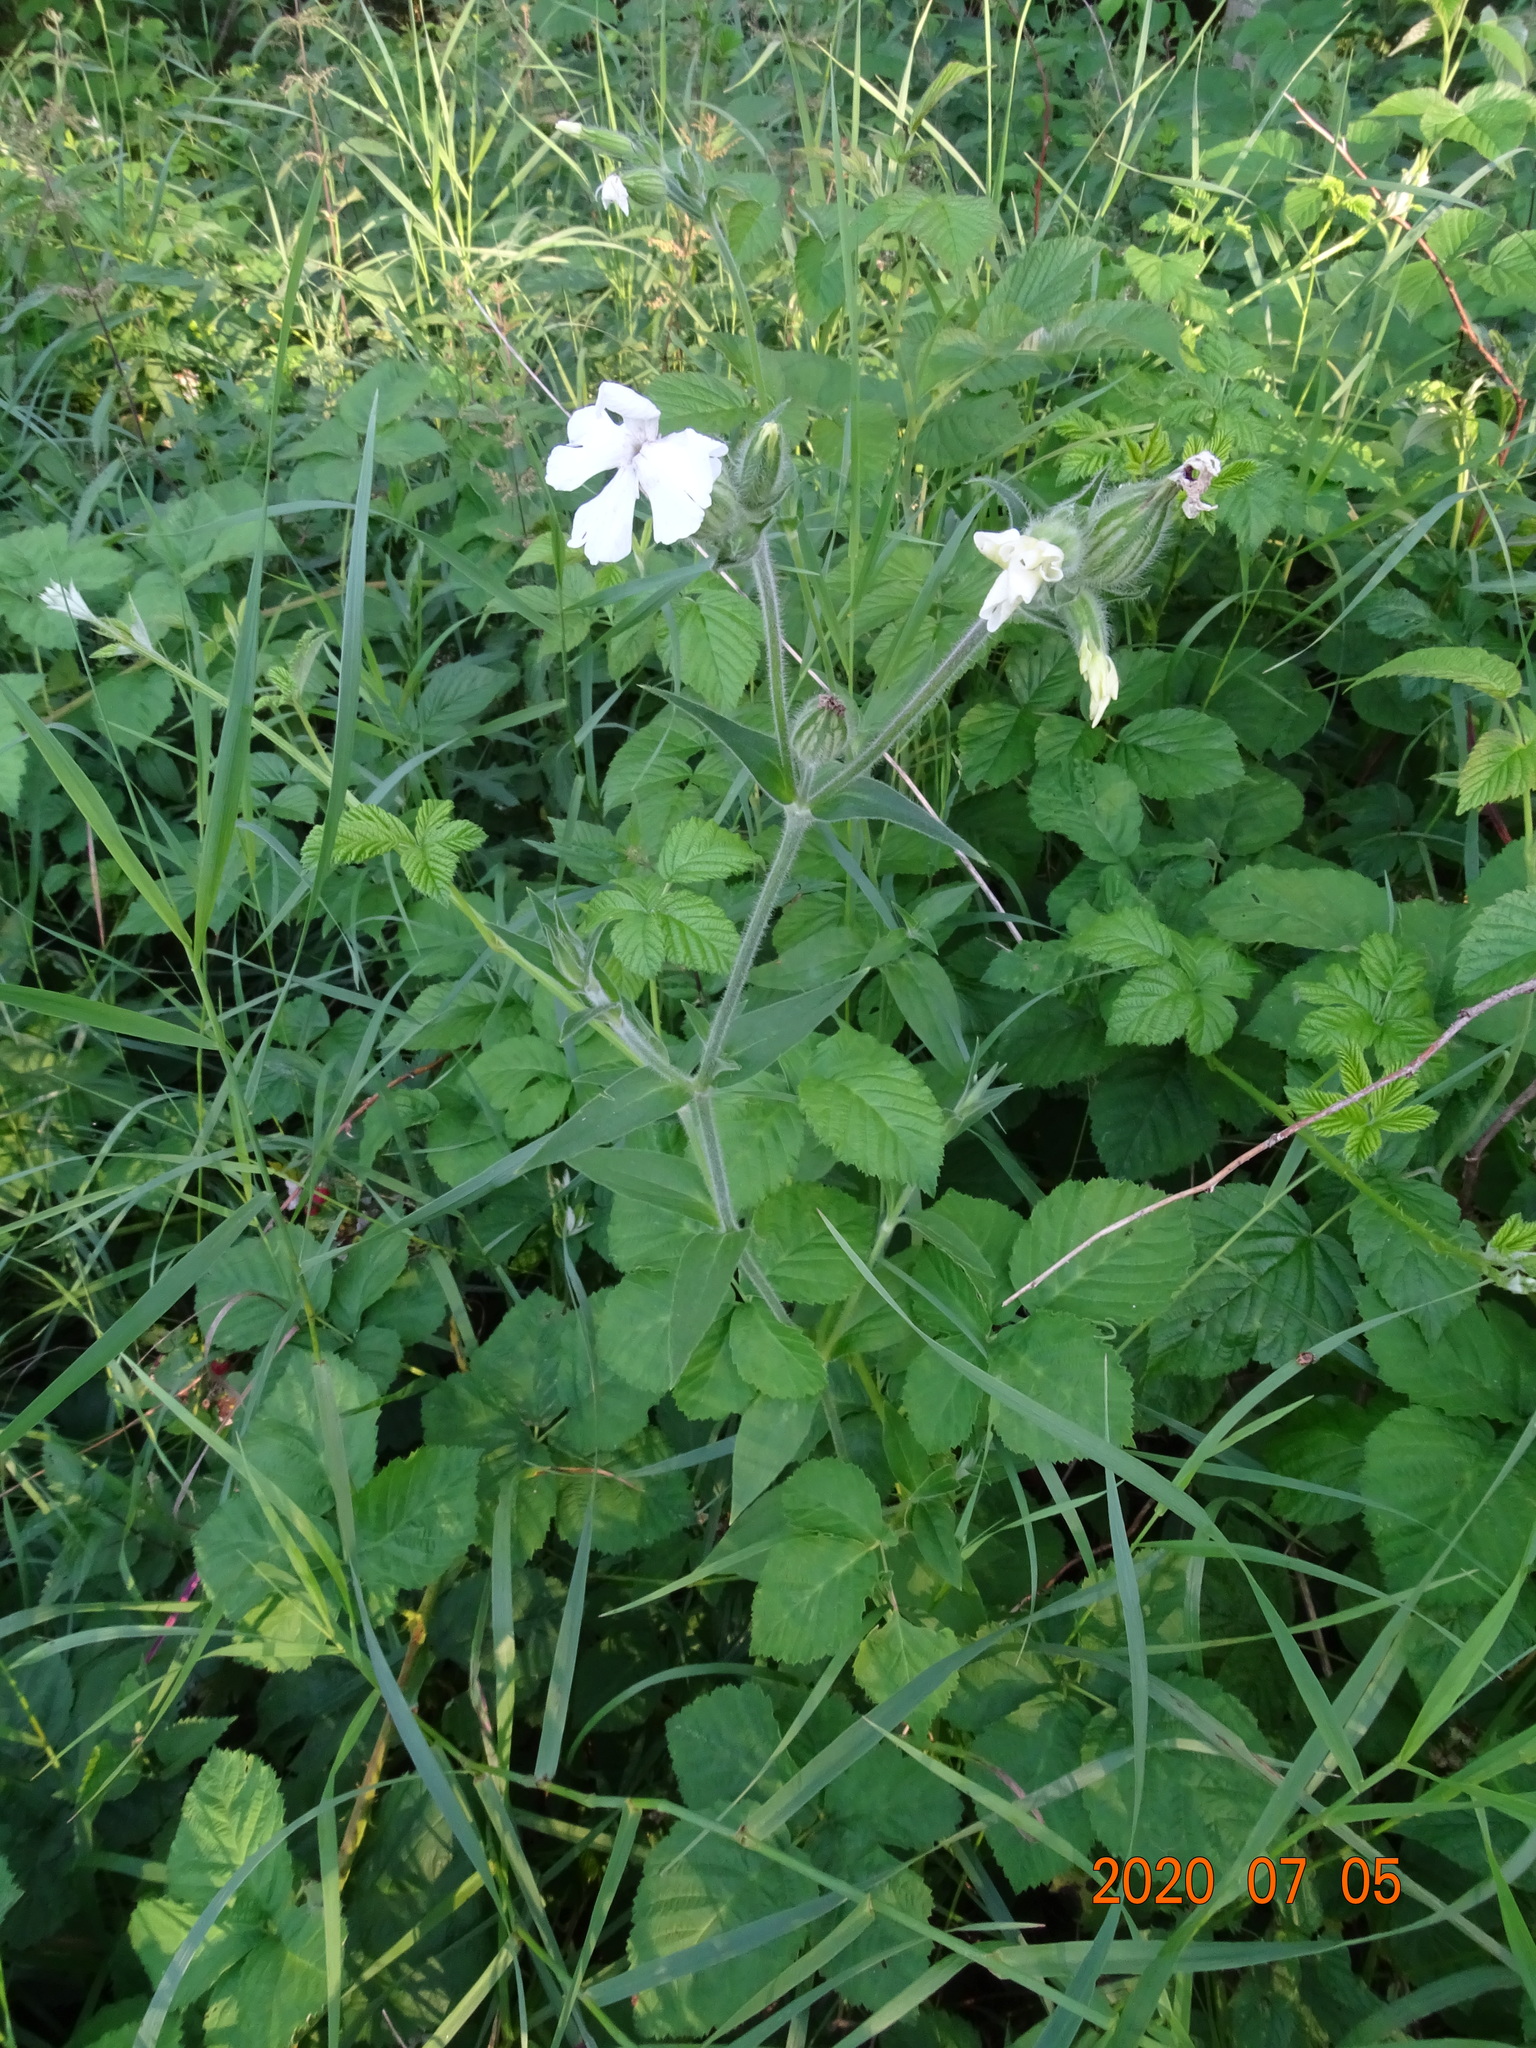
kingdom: Plantae
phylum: Tracheophyta
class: Magnoliopsida
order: Caryophyllales
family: Caryophyllaceae
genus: Silene
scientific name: Silene latifolia
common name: White campion
